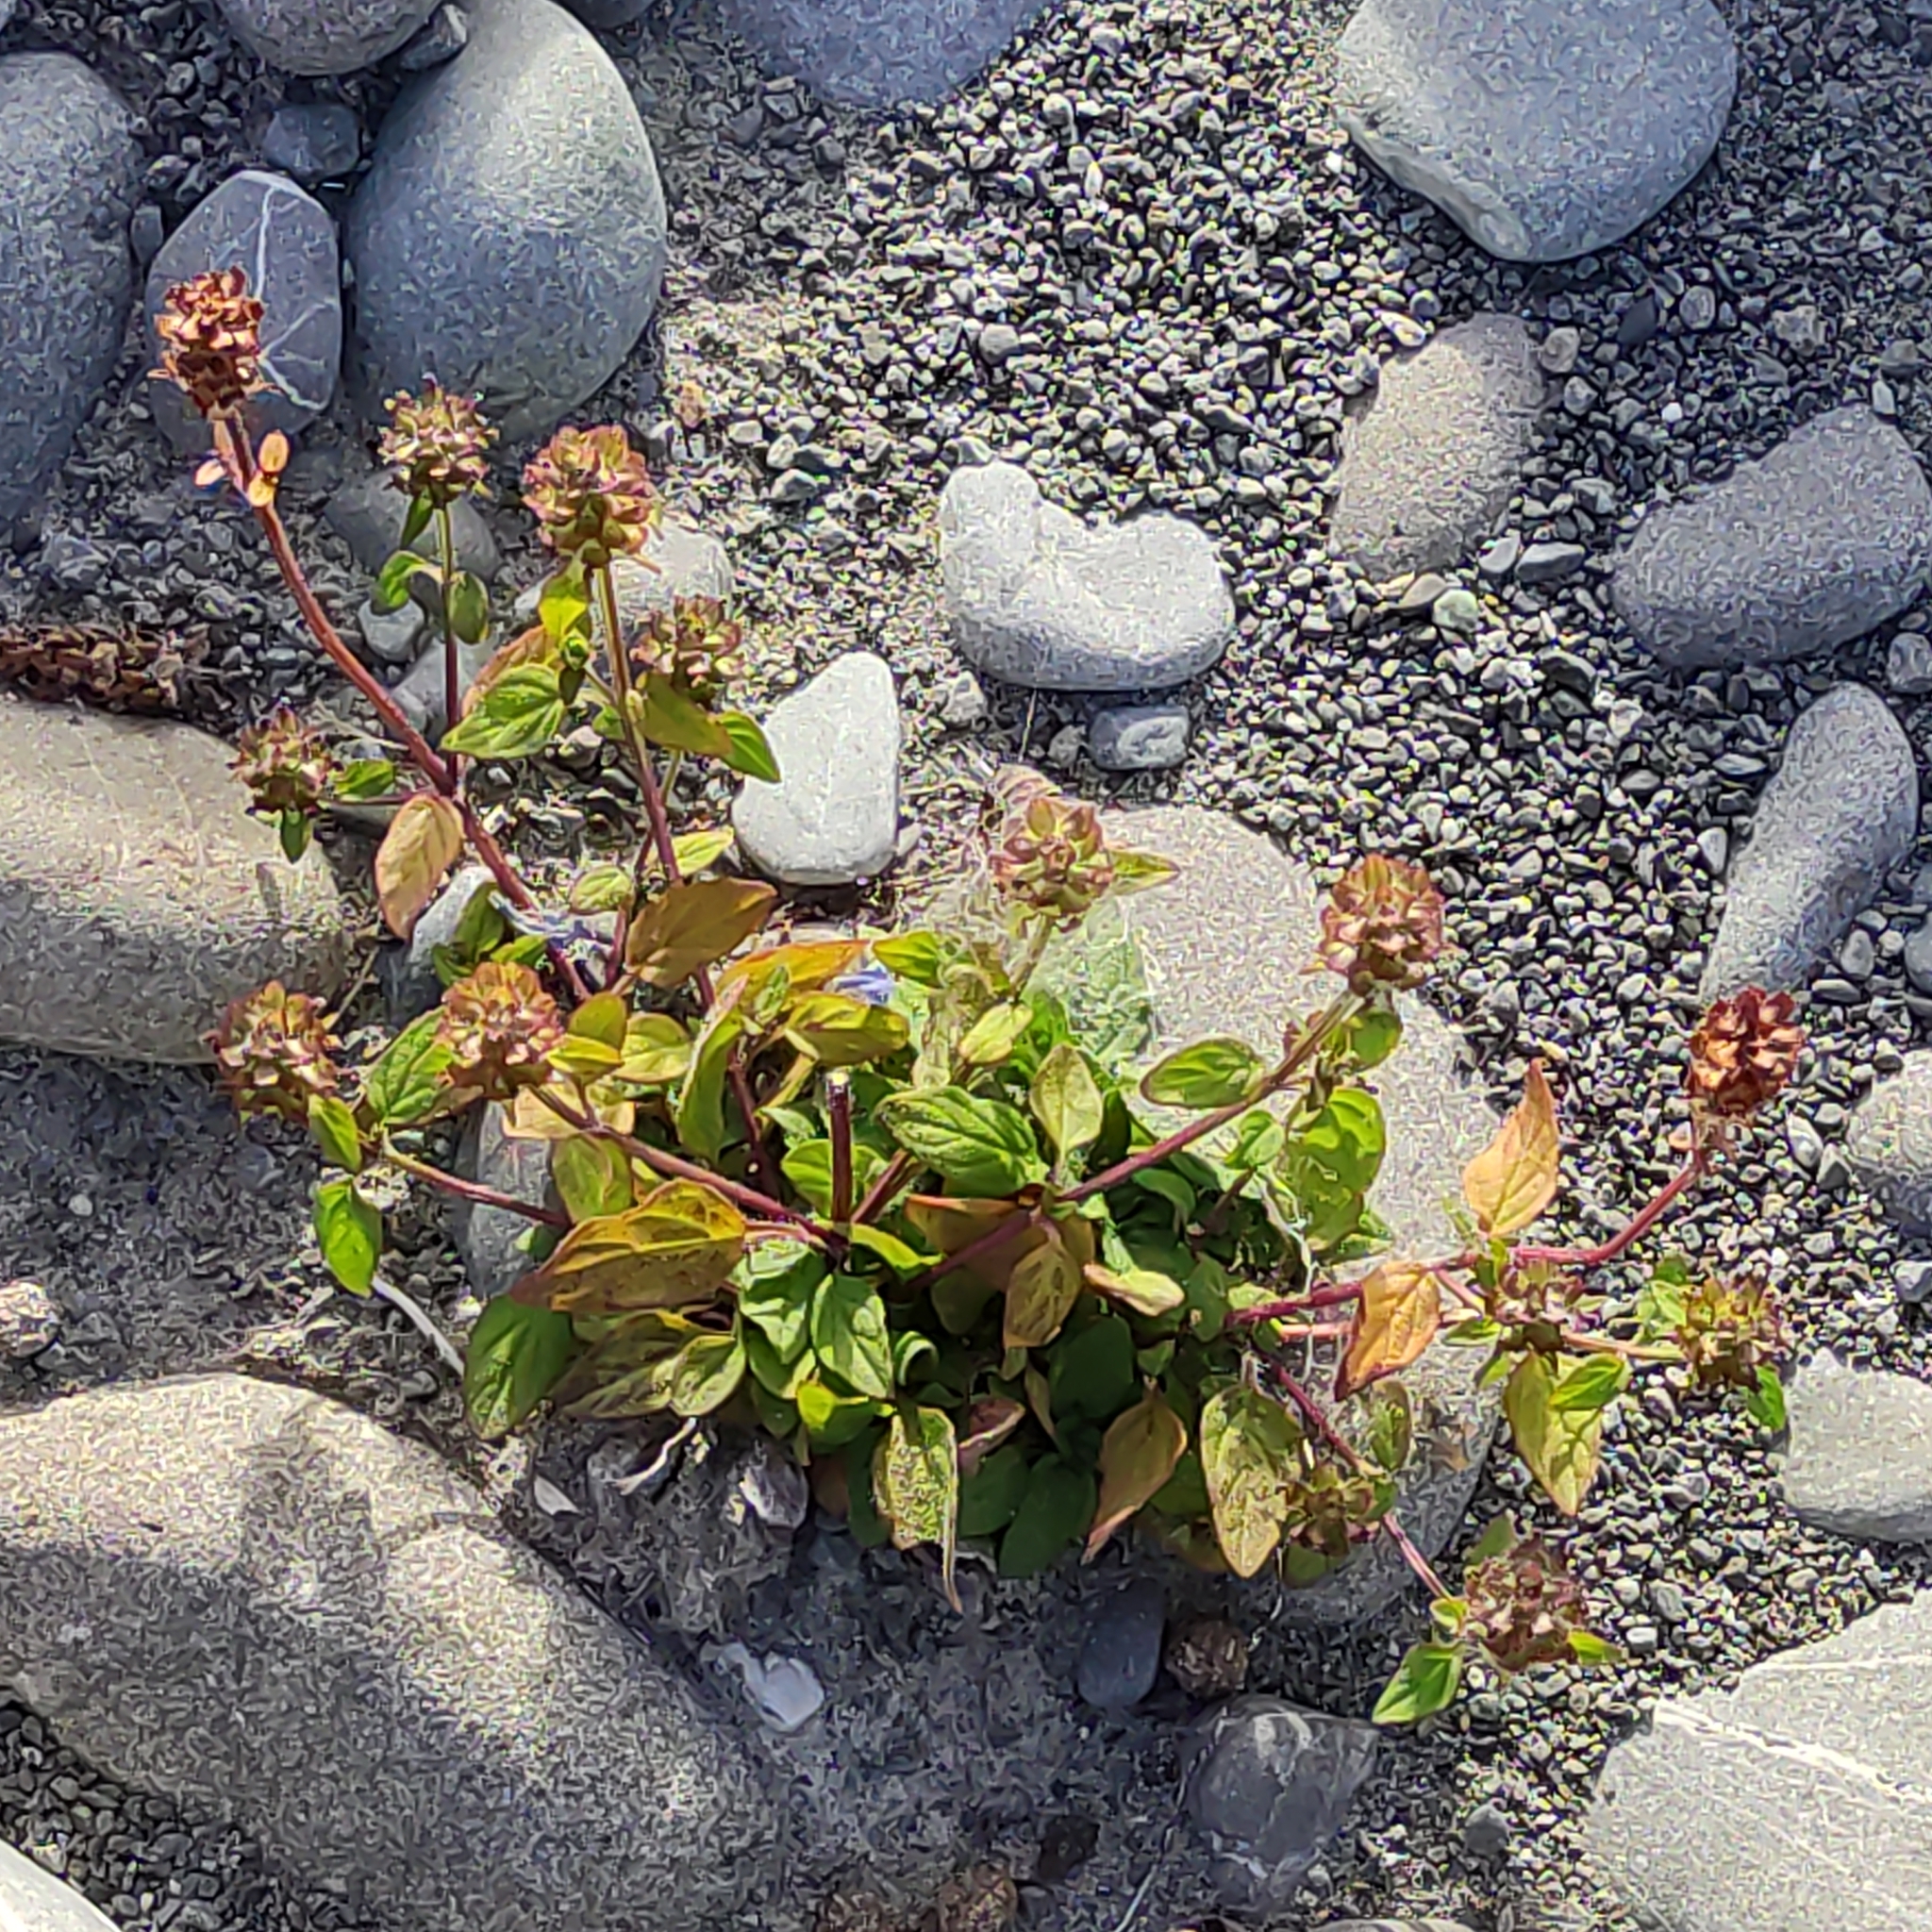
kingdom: Plantae
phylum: Tracheophyta
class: Magnoliopsida
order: Lamiales
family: Lamiaceae
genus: Prunella
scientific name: Prunella vulgaris
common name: Heal-all
